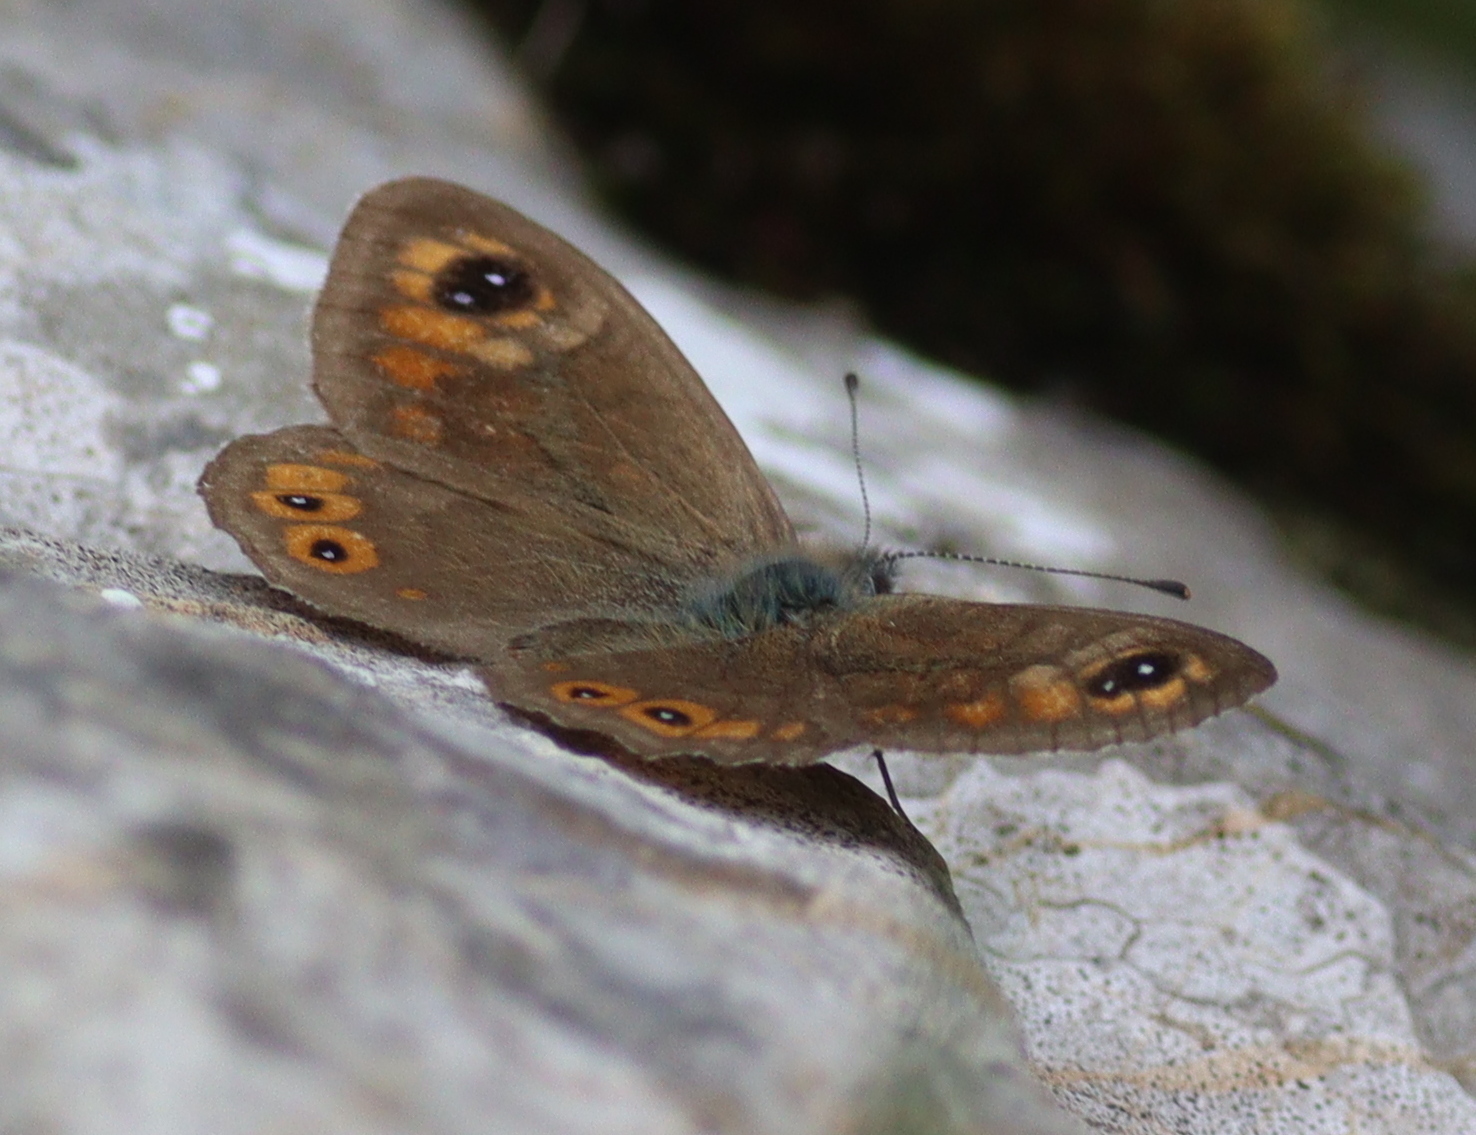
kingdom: Animalia
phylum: Arthropoda
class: Insecta
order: Lepidoptera
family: Nymphalidae
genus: Pararge
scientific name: Pararge Lasiommata maera
